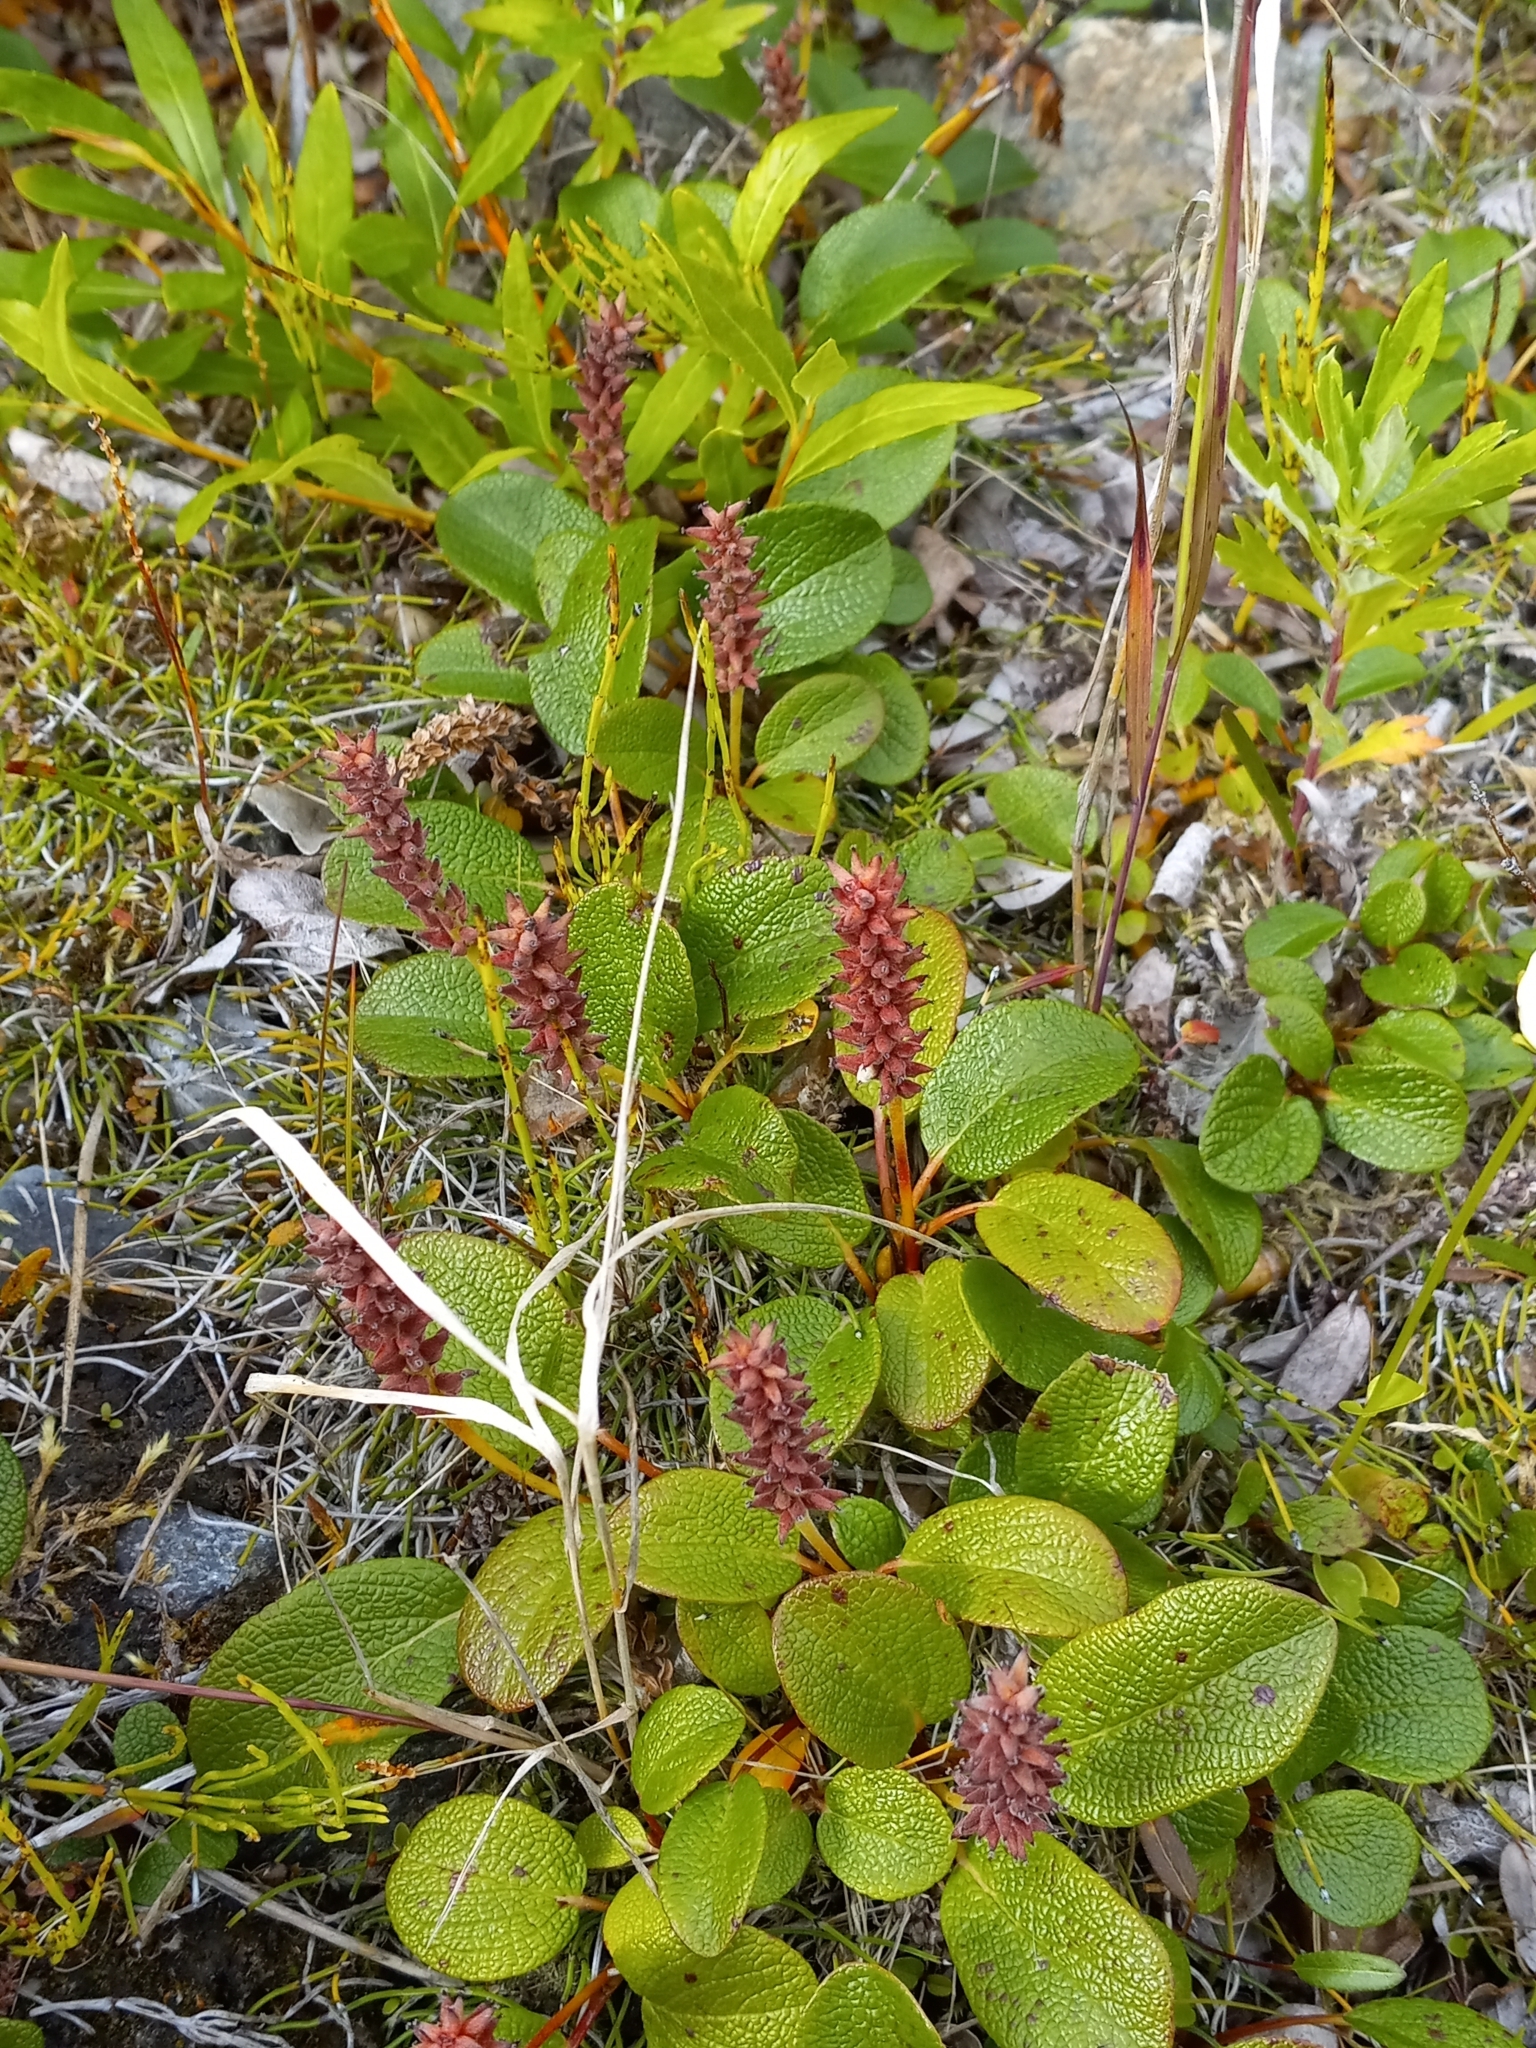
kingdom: Plantae
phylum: Tracheophyta
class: Magnoliopsida
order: Malpighiales
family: Salicaceae
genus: Salix
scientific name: Salix reticulata
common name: Net-leaved willow
